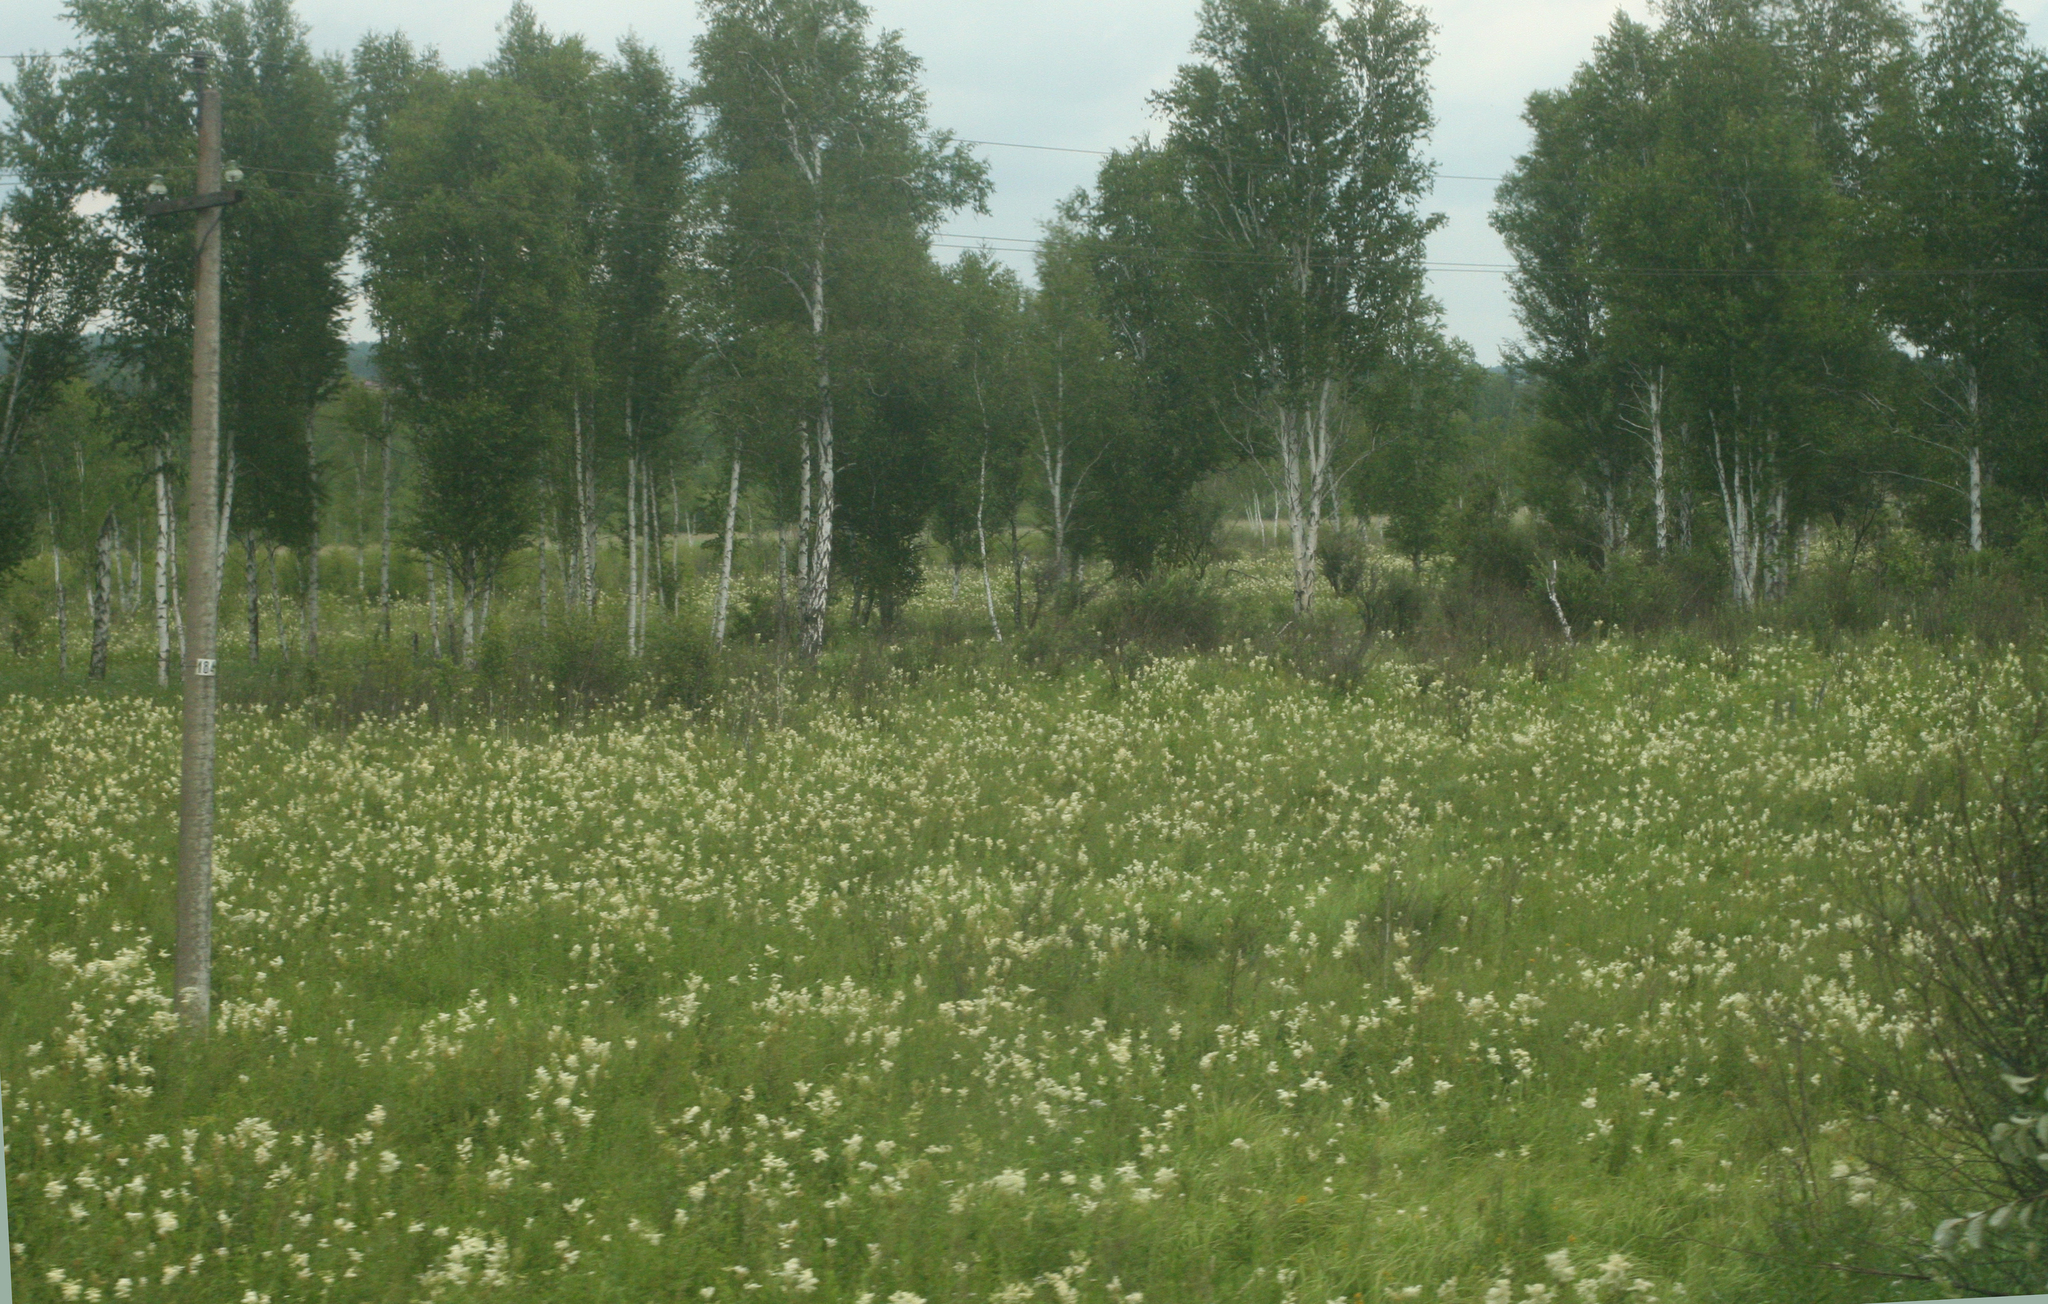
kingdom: Plantae
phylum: Tracheophyta
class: Magnoliopsida
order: Rosales
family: Rosaceae
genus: Filipendula
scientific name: Filipendula ulmaria
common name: Meadowsweet
